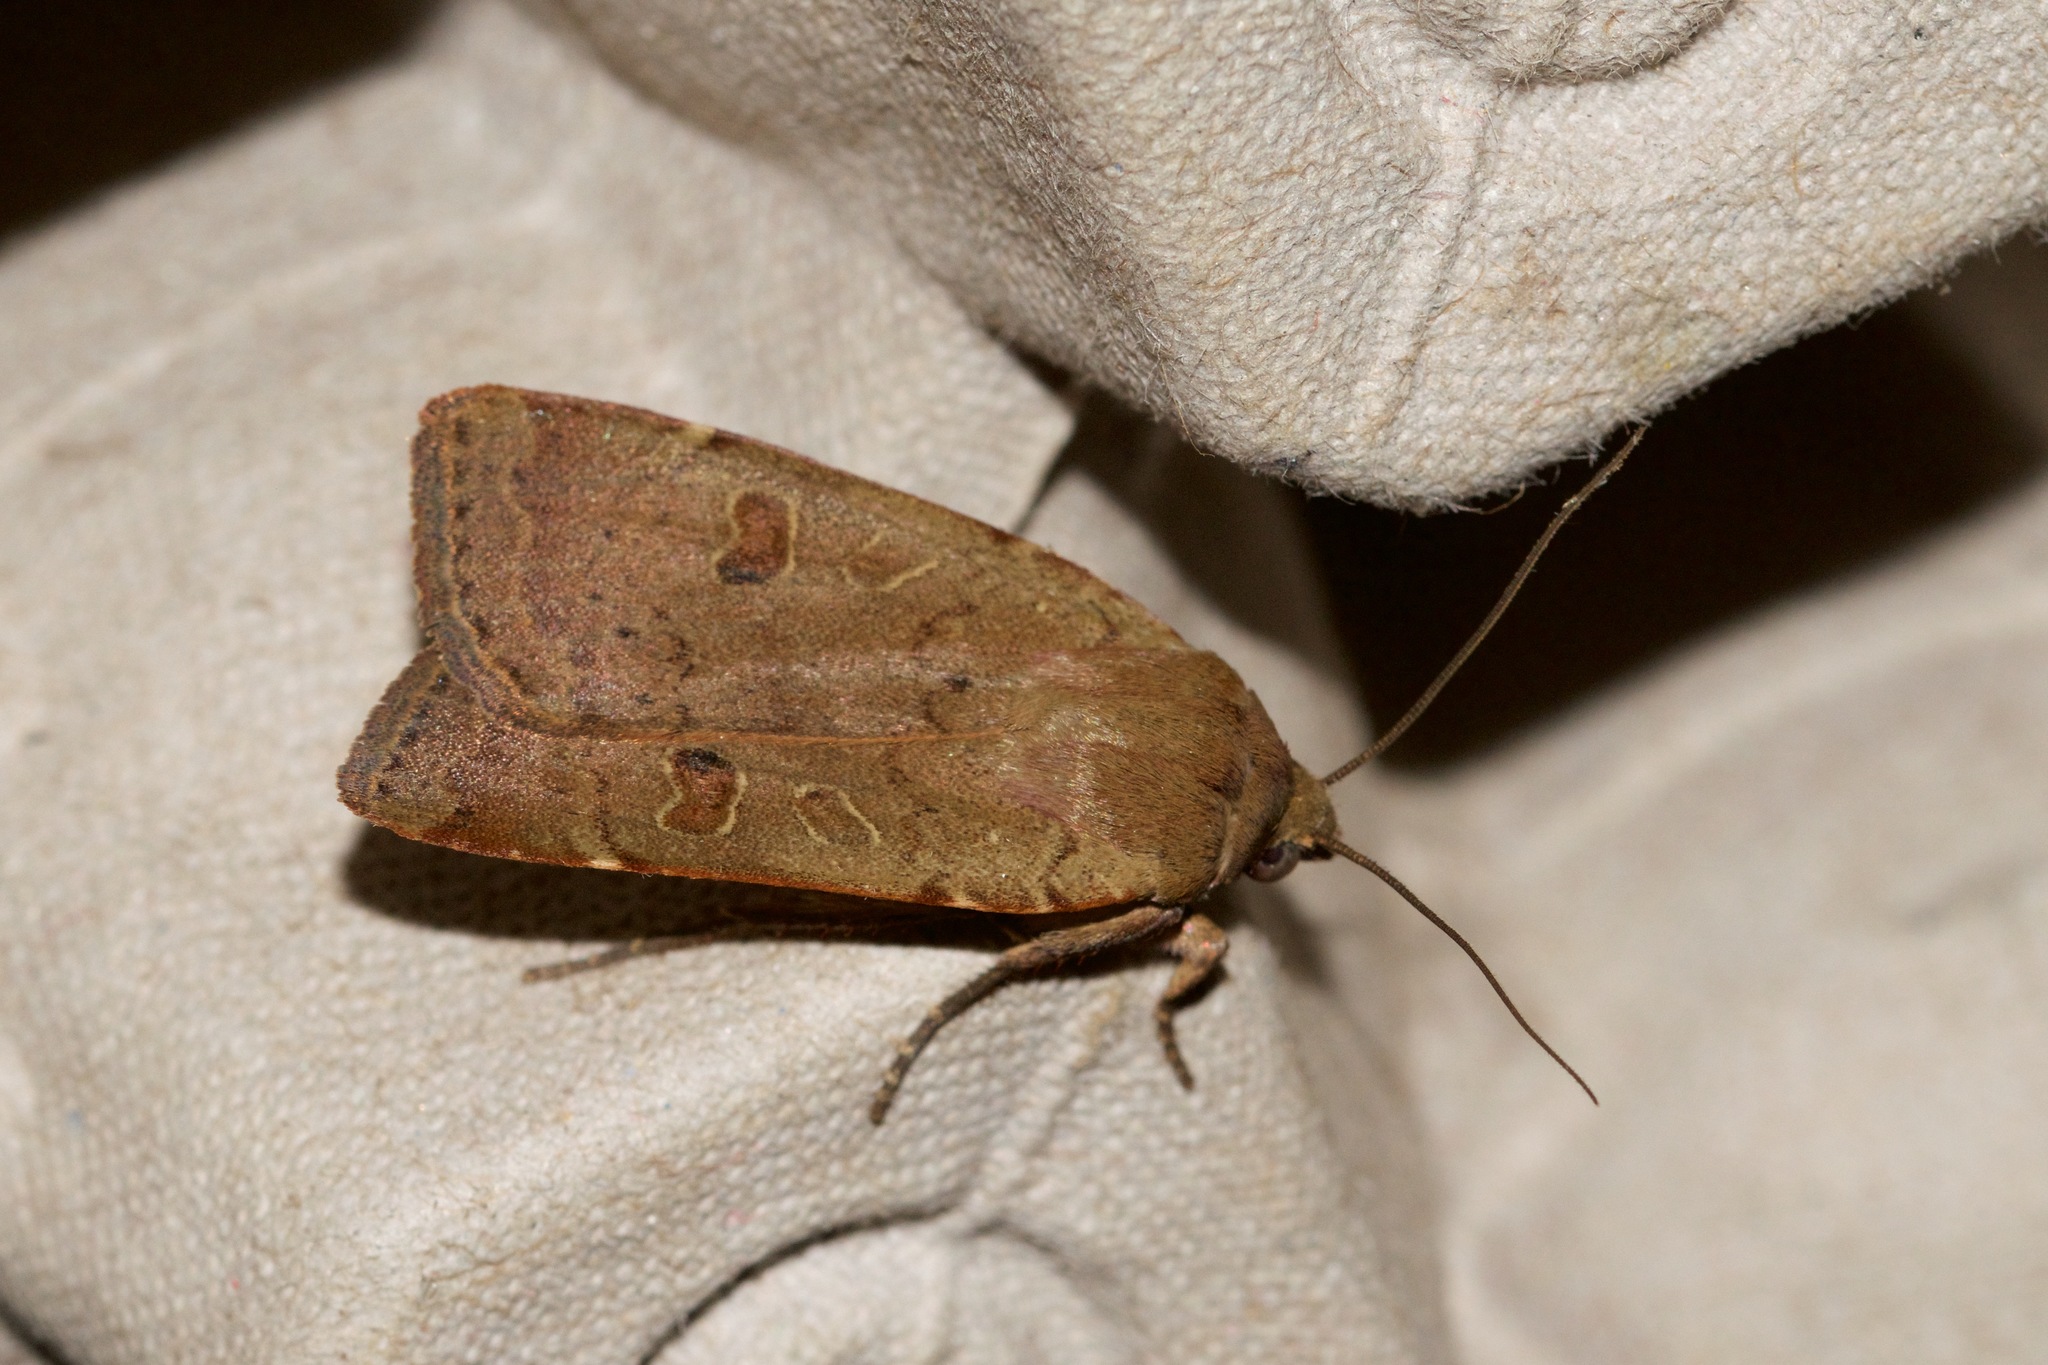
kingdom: Animalia
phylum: Arthropoda
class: Insecta
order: Lepidoptera
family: Noctuidae
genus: Noctua
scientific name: Noctua comes
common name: Lesser yellow underwing
